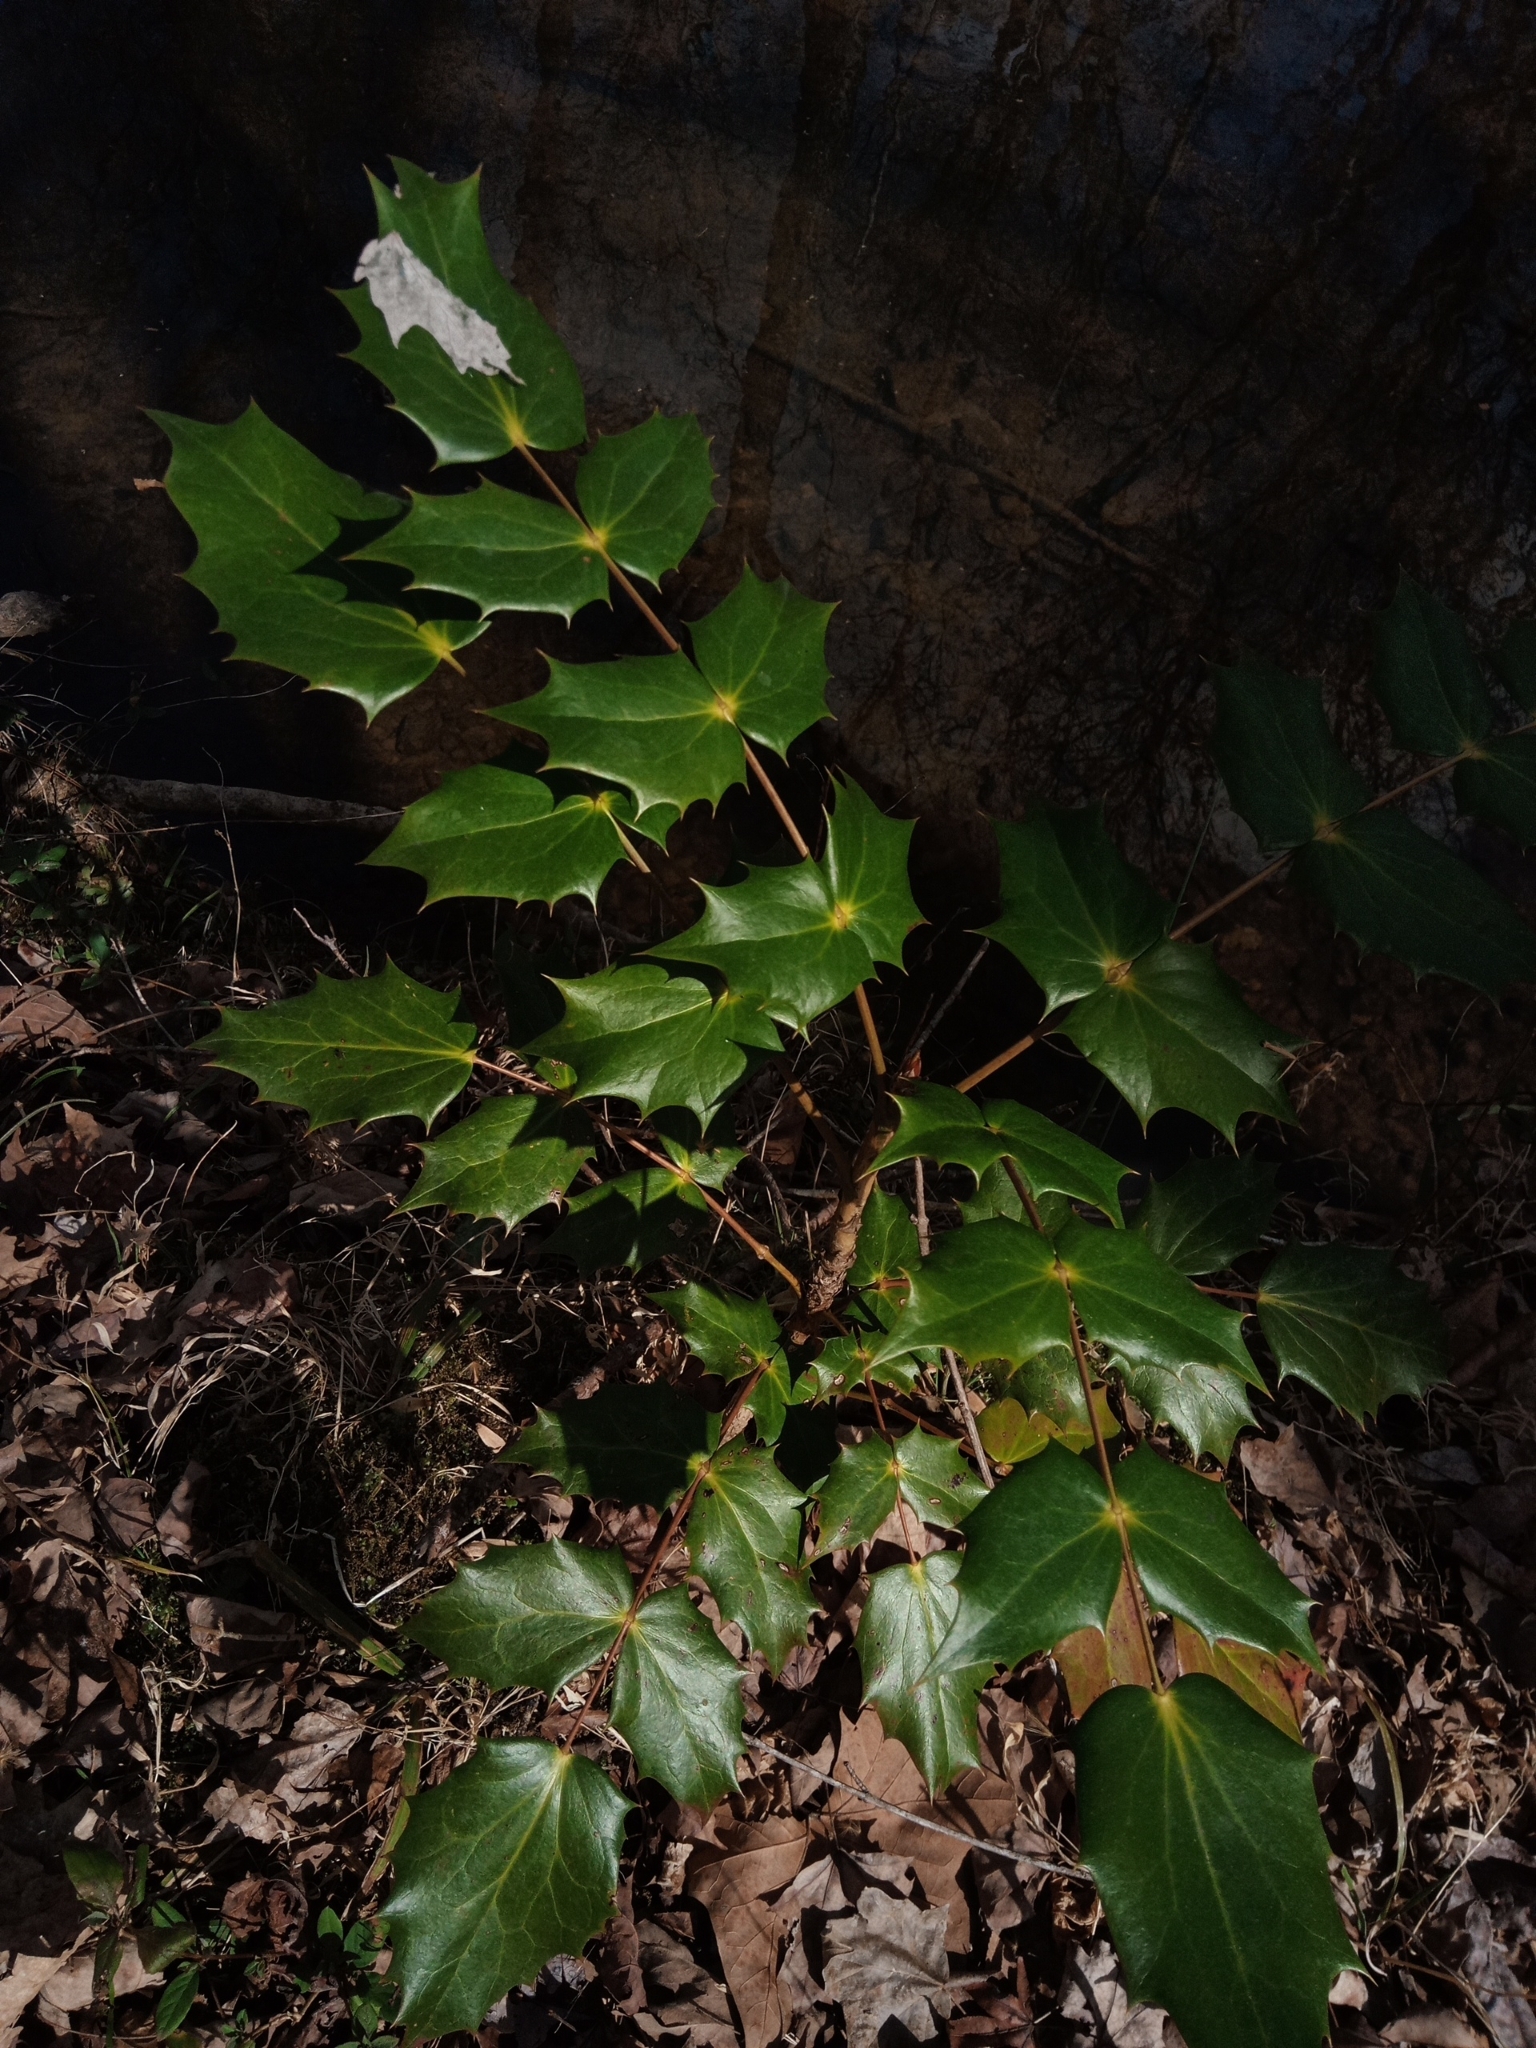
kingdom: Plantae
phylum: Tracheophyta
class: Magnoliopsida
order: Ranunculales
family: Berberidaceae
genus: Mahonia
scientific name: Mahonia bealei
